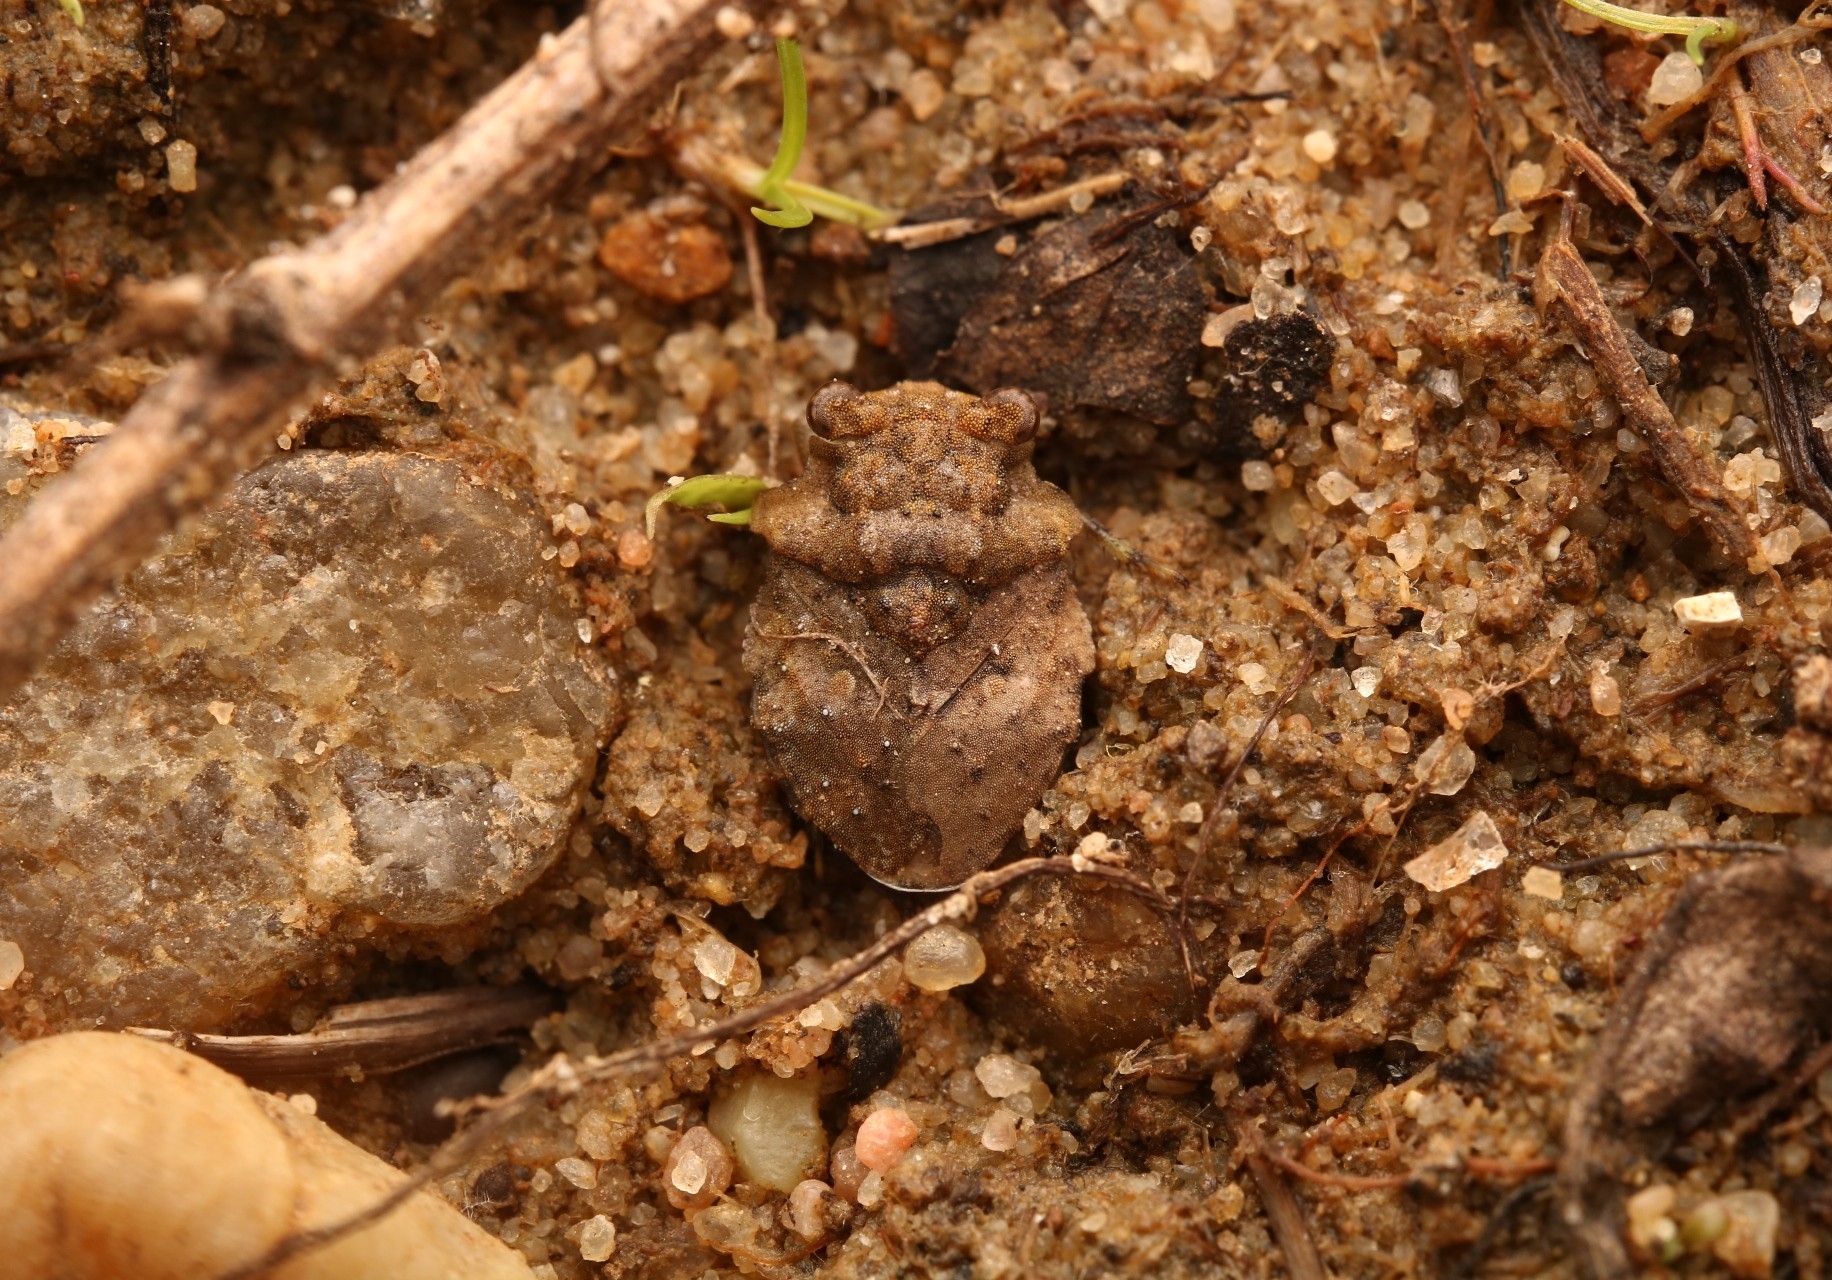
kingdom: Animalia
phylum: Arthropoda
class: Insecta
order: Hemiptera
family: Gelastocoridae
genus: Gelastocoris
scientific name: Gelastocoris oculatus
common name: Toad bug
